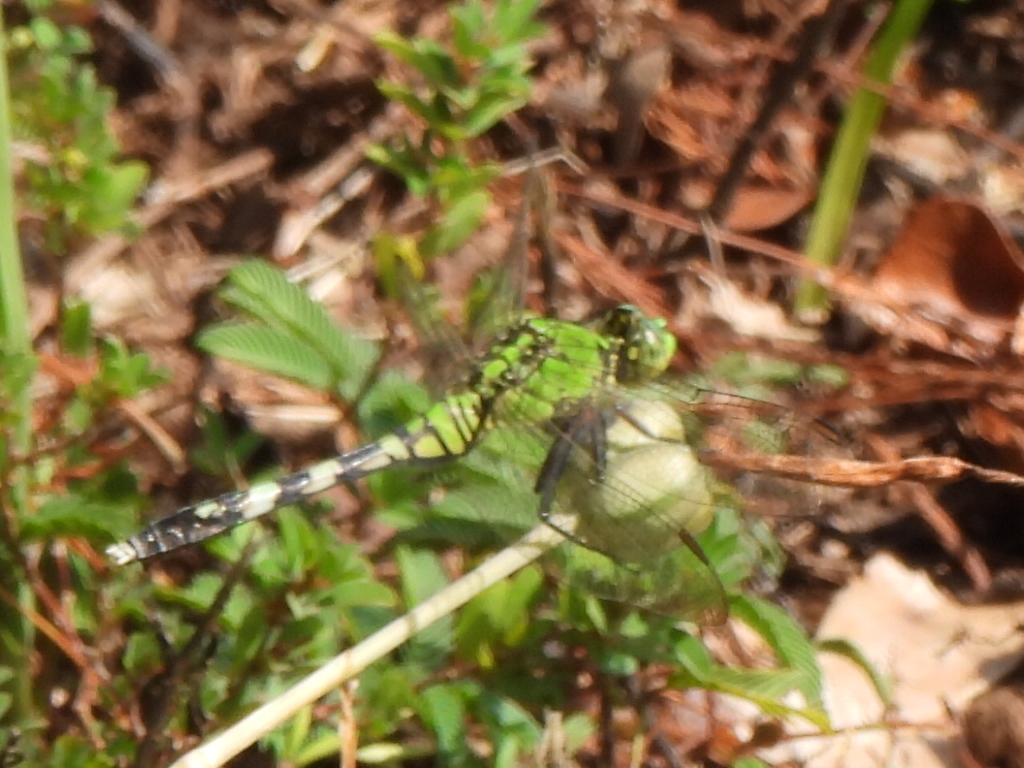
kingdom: Animalia
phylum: Arthropoda
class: Insecta
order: Odonata
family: Libellulidae
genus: Erythemis
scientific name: Erythemis simplicicollis
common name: Eastern pondhawk
